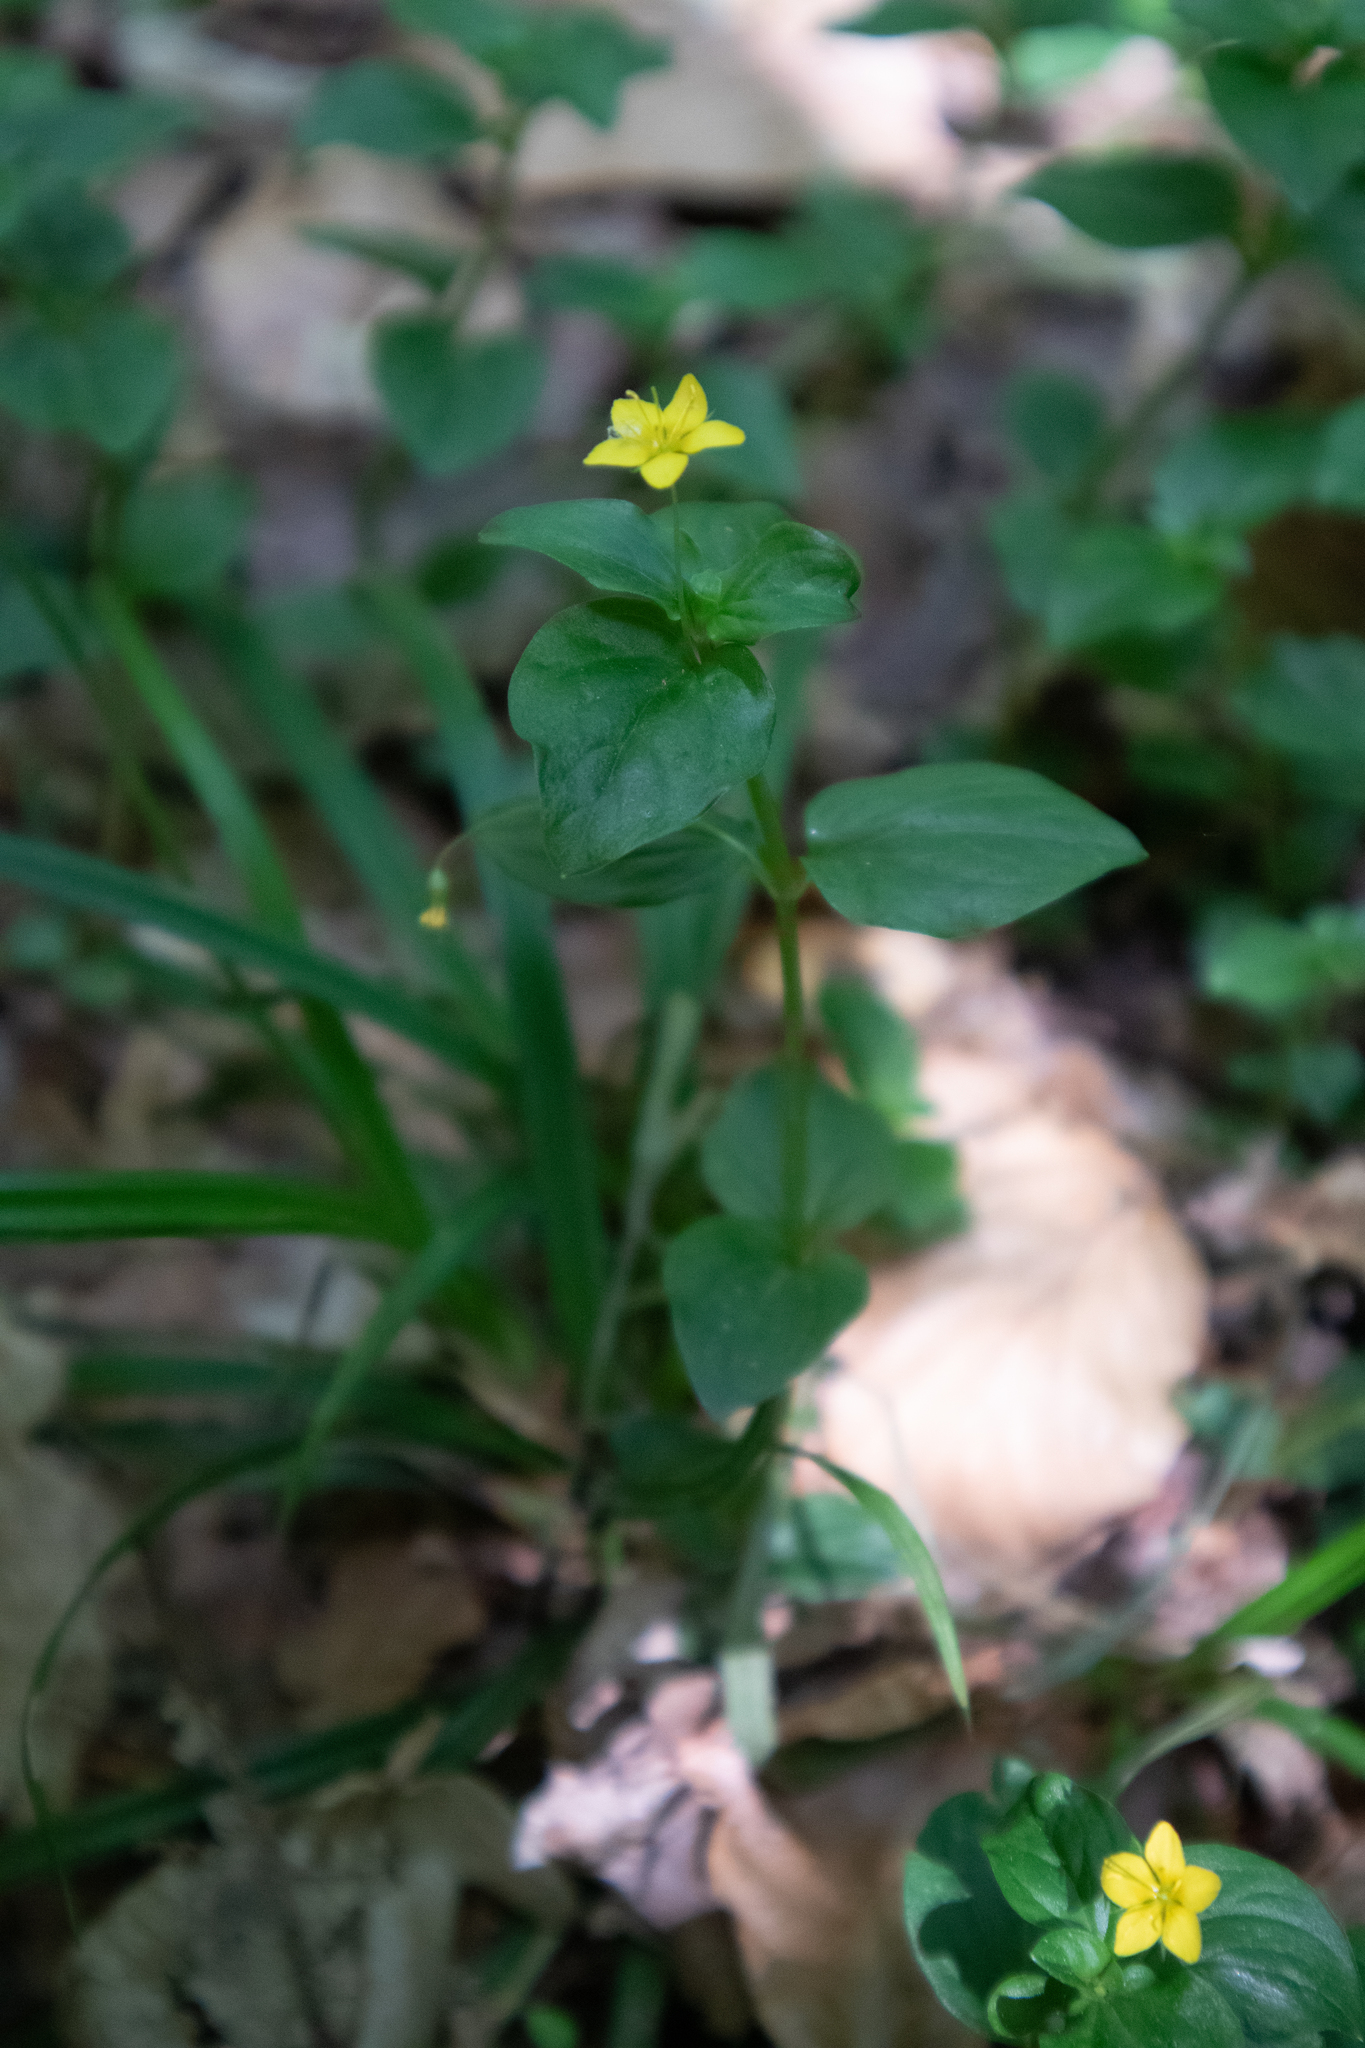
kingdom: Plantae
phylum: Tracheophyta
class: Magnoliopsida
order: Ericales
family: Primulaceae
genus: Lysimachia
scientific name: Lysimachia nemorum
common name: Yellow pimpernel
